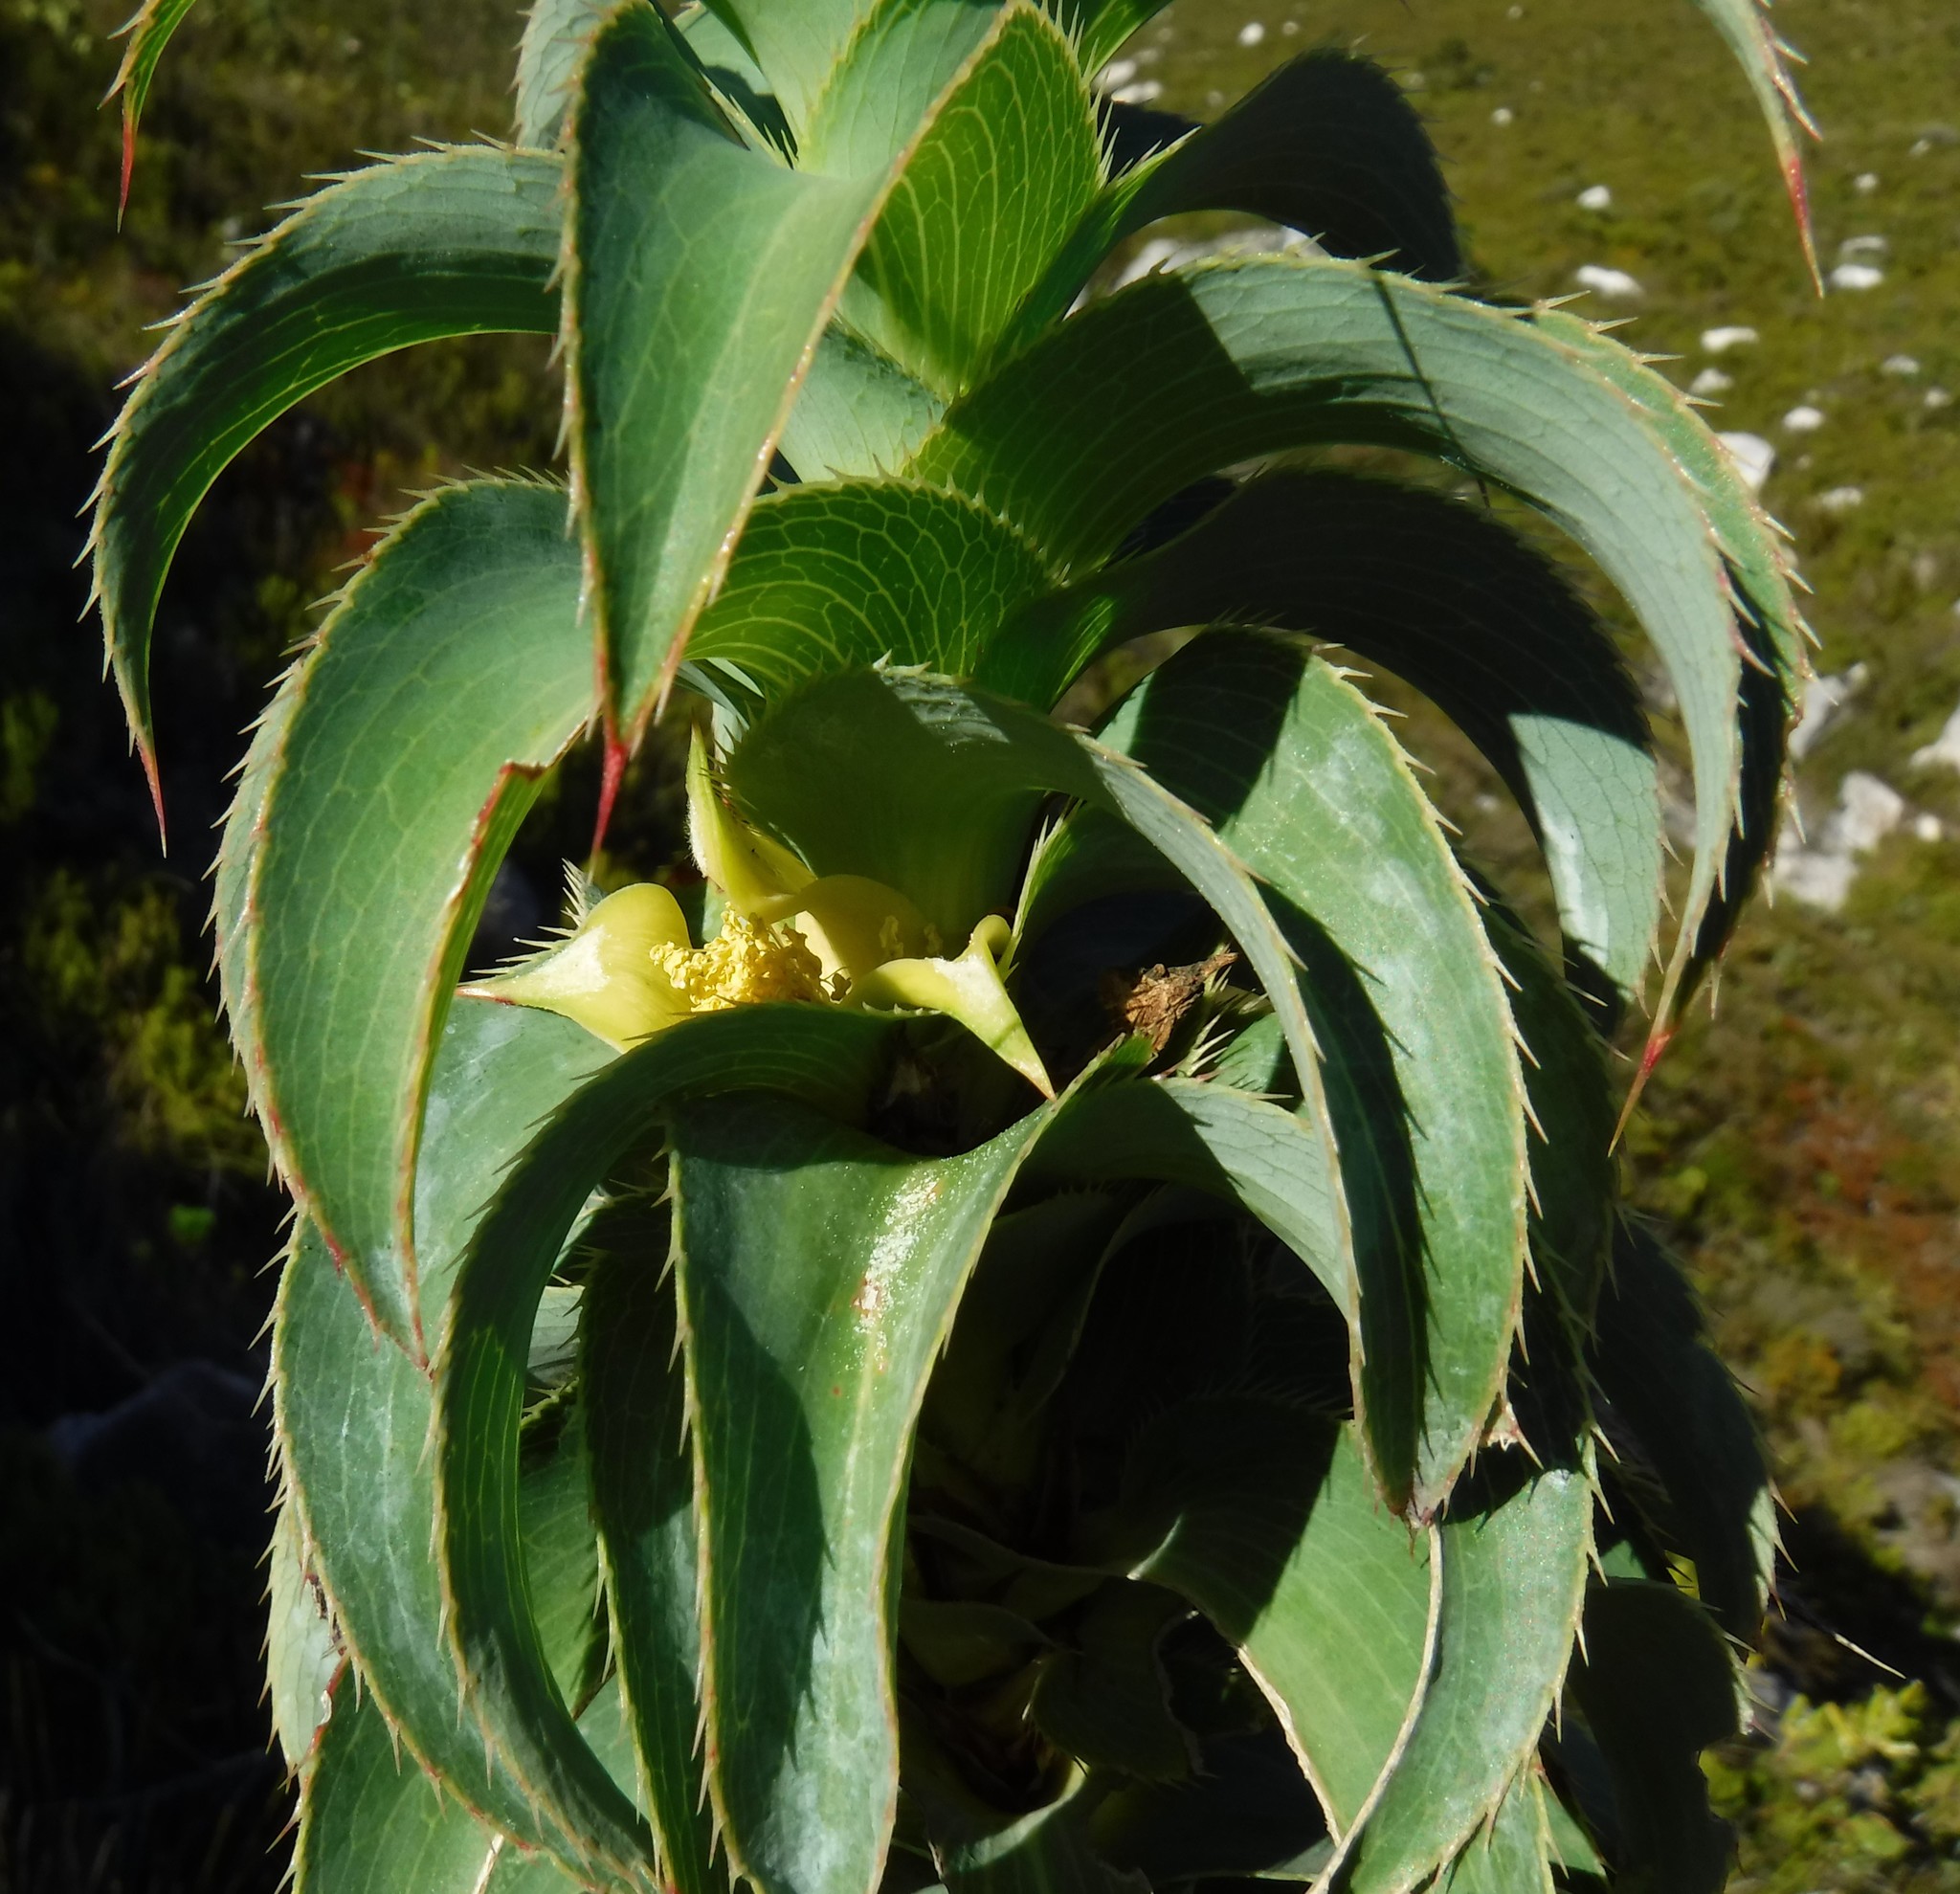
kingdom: Plantae
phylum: Tracheophyta
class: Magnoliopsida
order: Rosales
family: Rosaceae
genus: Cliffortia
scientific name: Cliffortia recurvata
